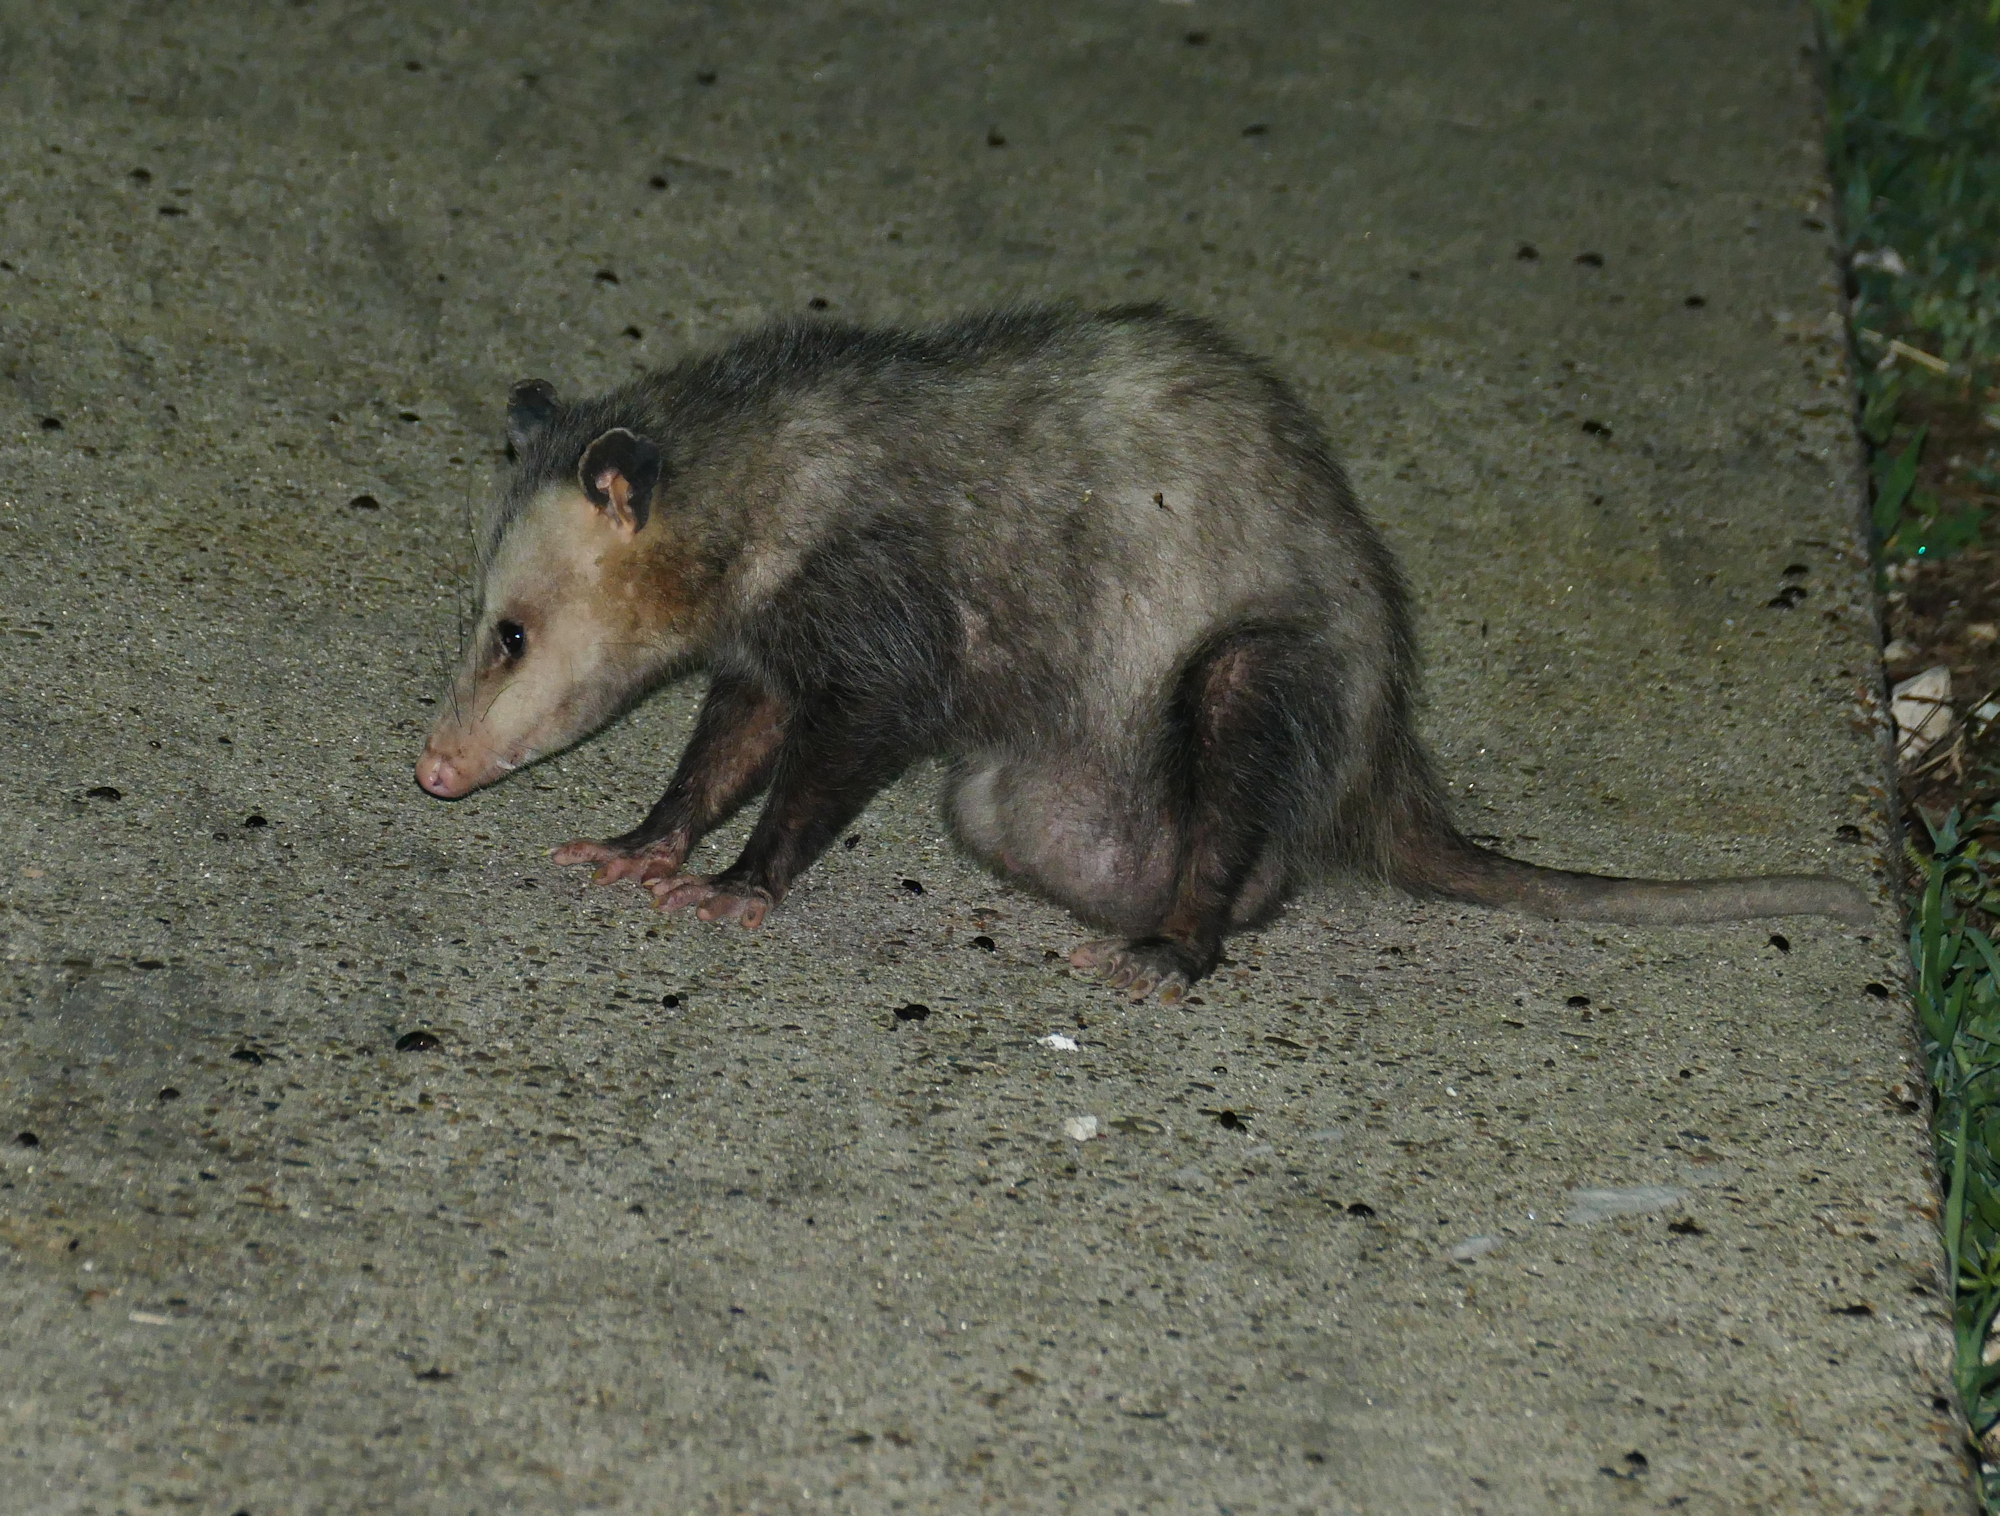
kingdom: Animalia
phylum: Chordata
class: Mammalia
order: Didelphimorphia
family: Didelphidae
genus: Didelphis
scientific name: Didelphis virginiana
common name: Virginia opossum
